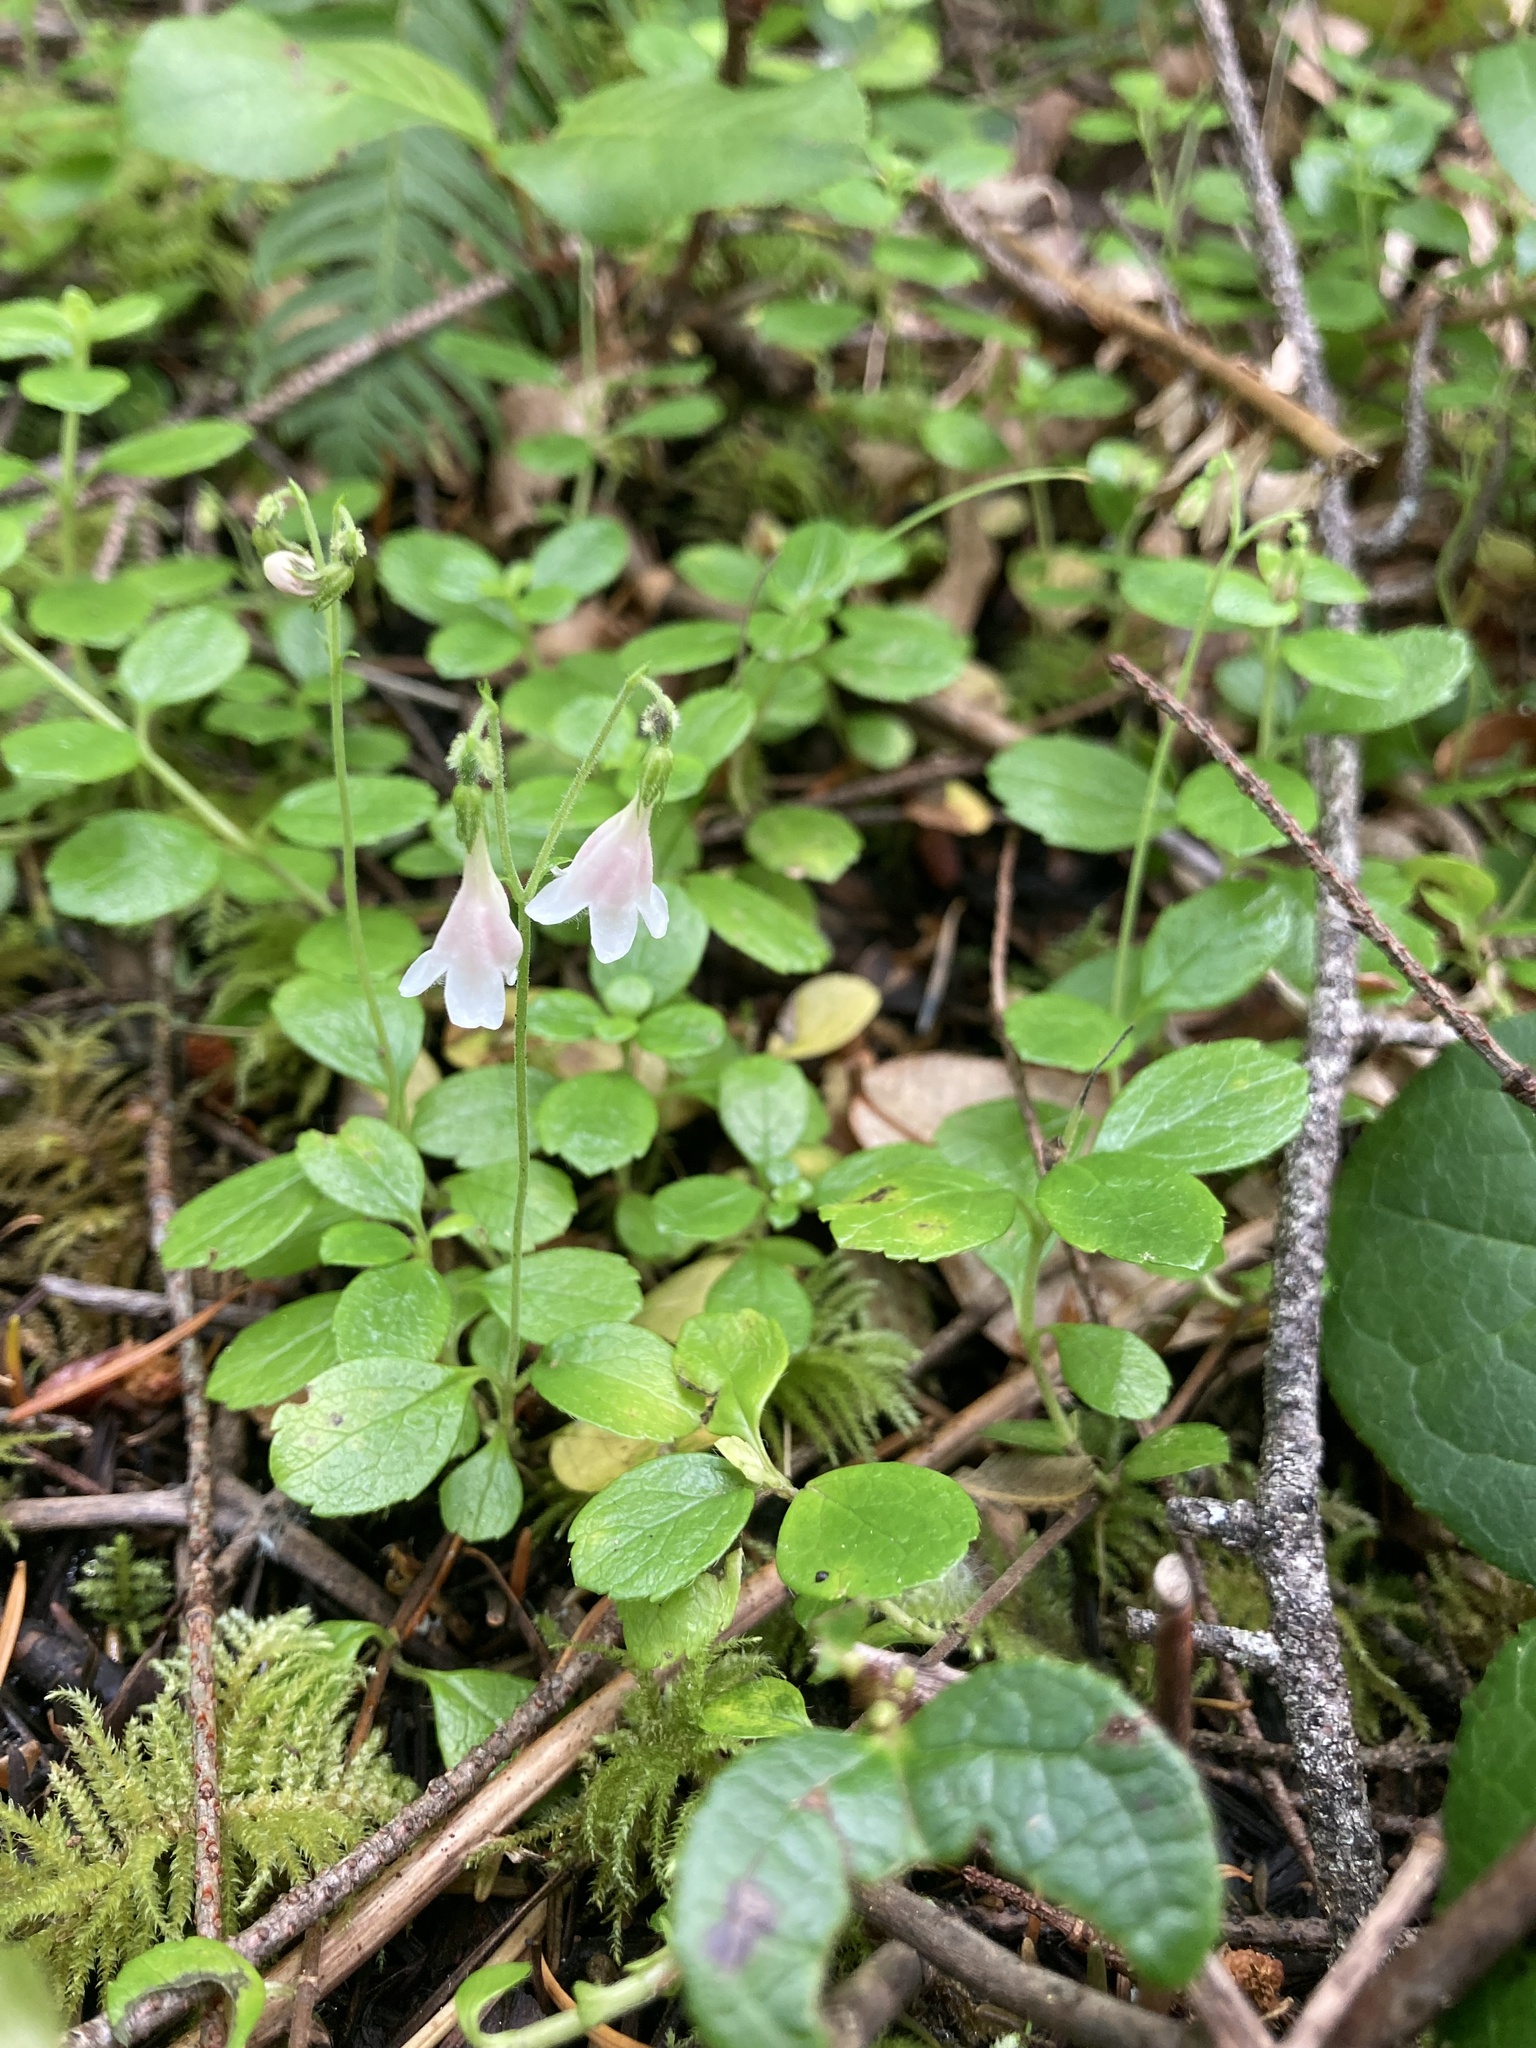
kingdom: Plantae
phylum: Tracheophyta
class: Magnoliopsida
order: Dipsacales
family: Caprifoliaceae
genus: Linnaea
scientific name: Linnaea borealis
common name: Twinflower
